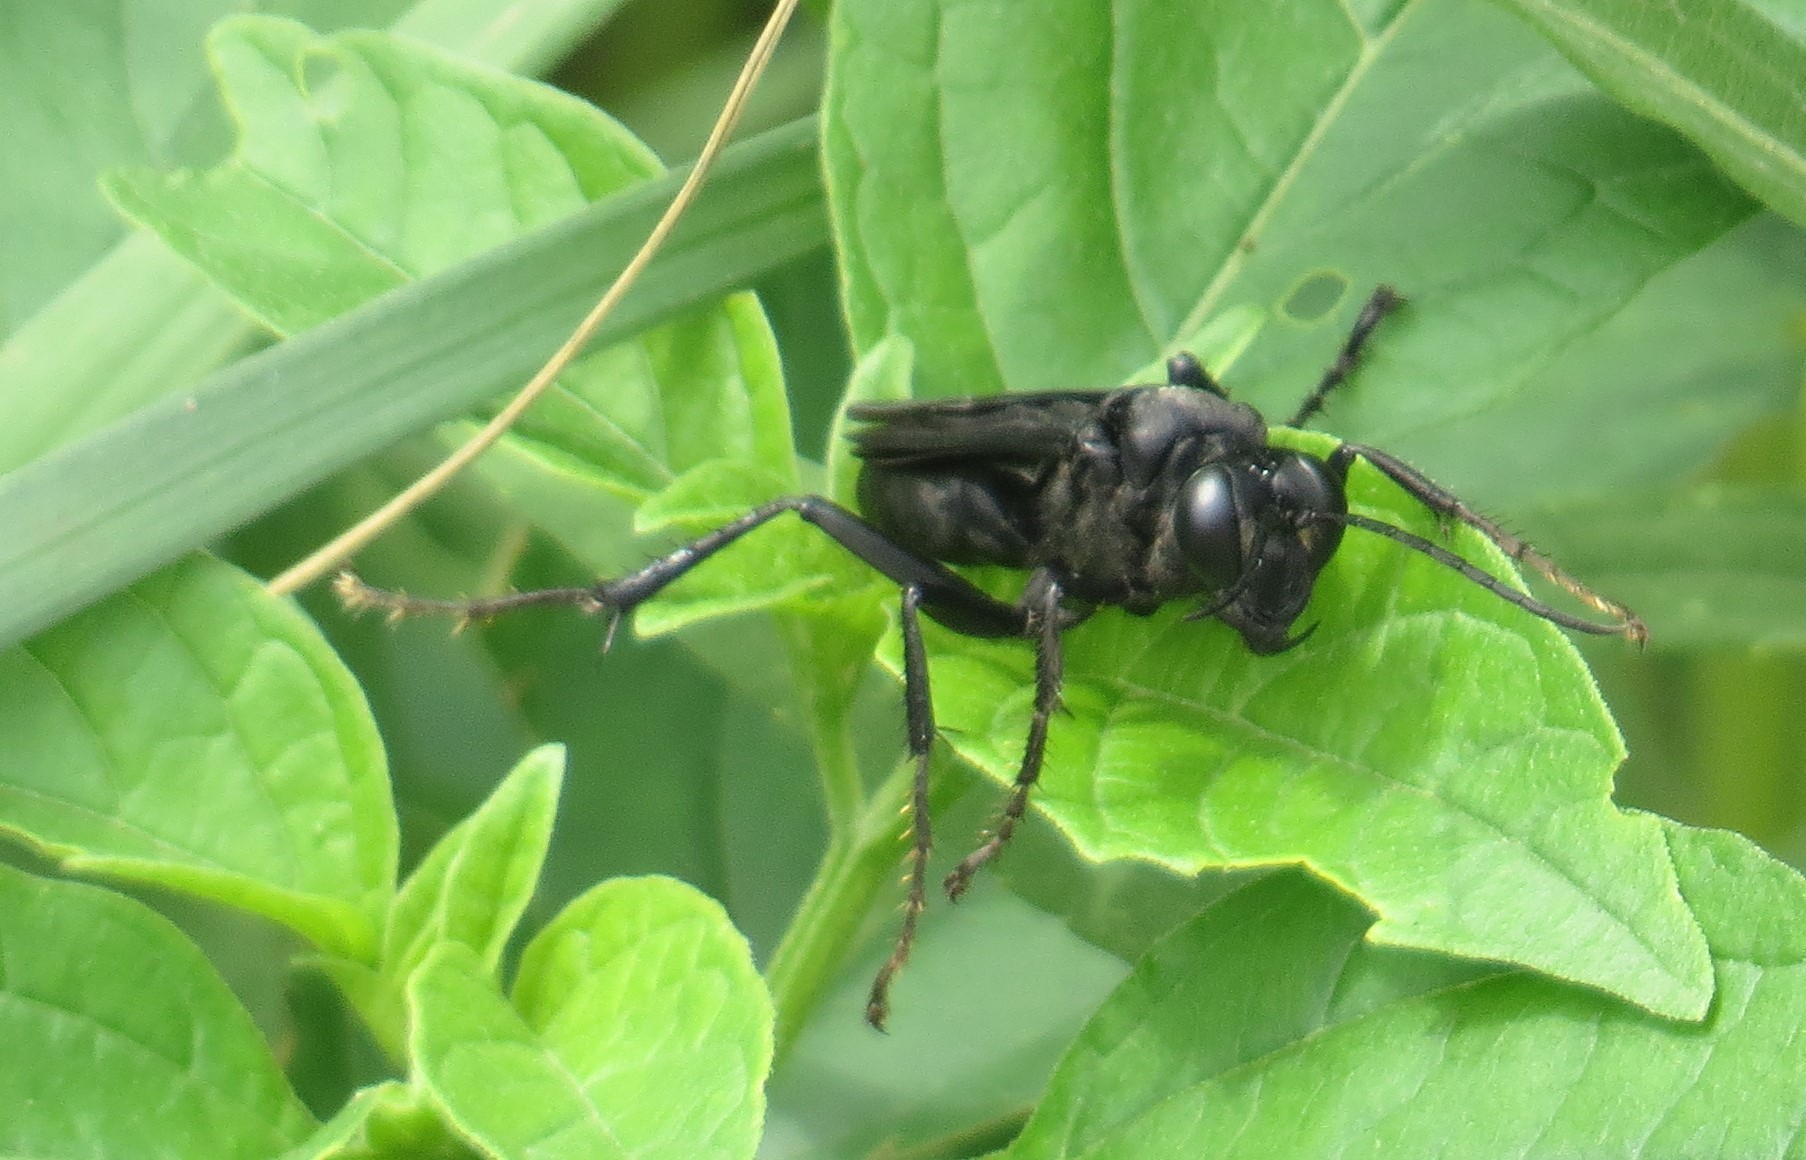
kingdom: Animalia
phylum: Arthropoda
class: Insecta
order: Hymenoptera
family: Sphecidae
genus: Sphex
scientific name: Sphex pensylvanicus
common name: Great black digger wasp
